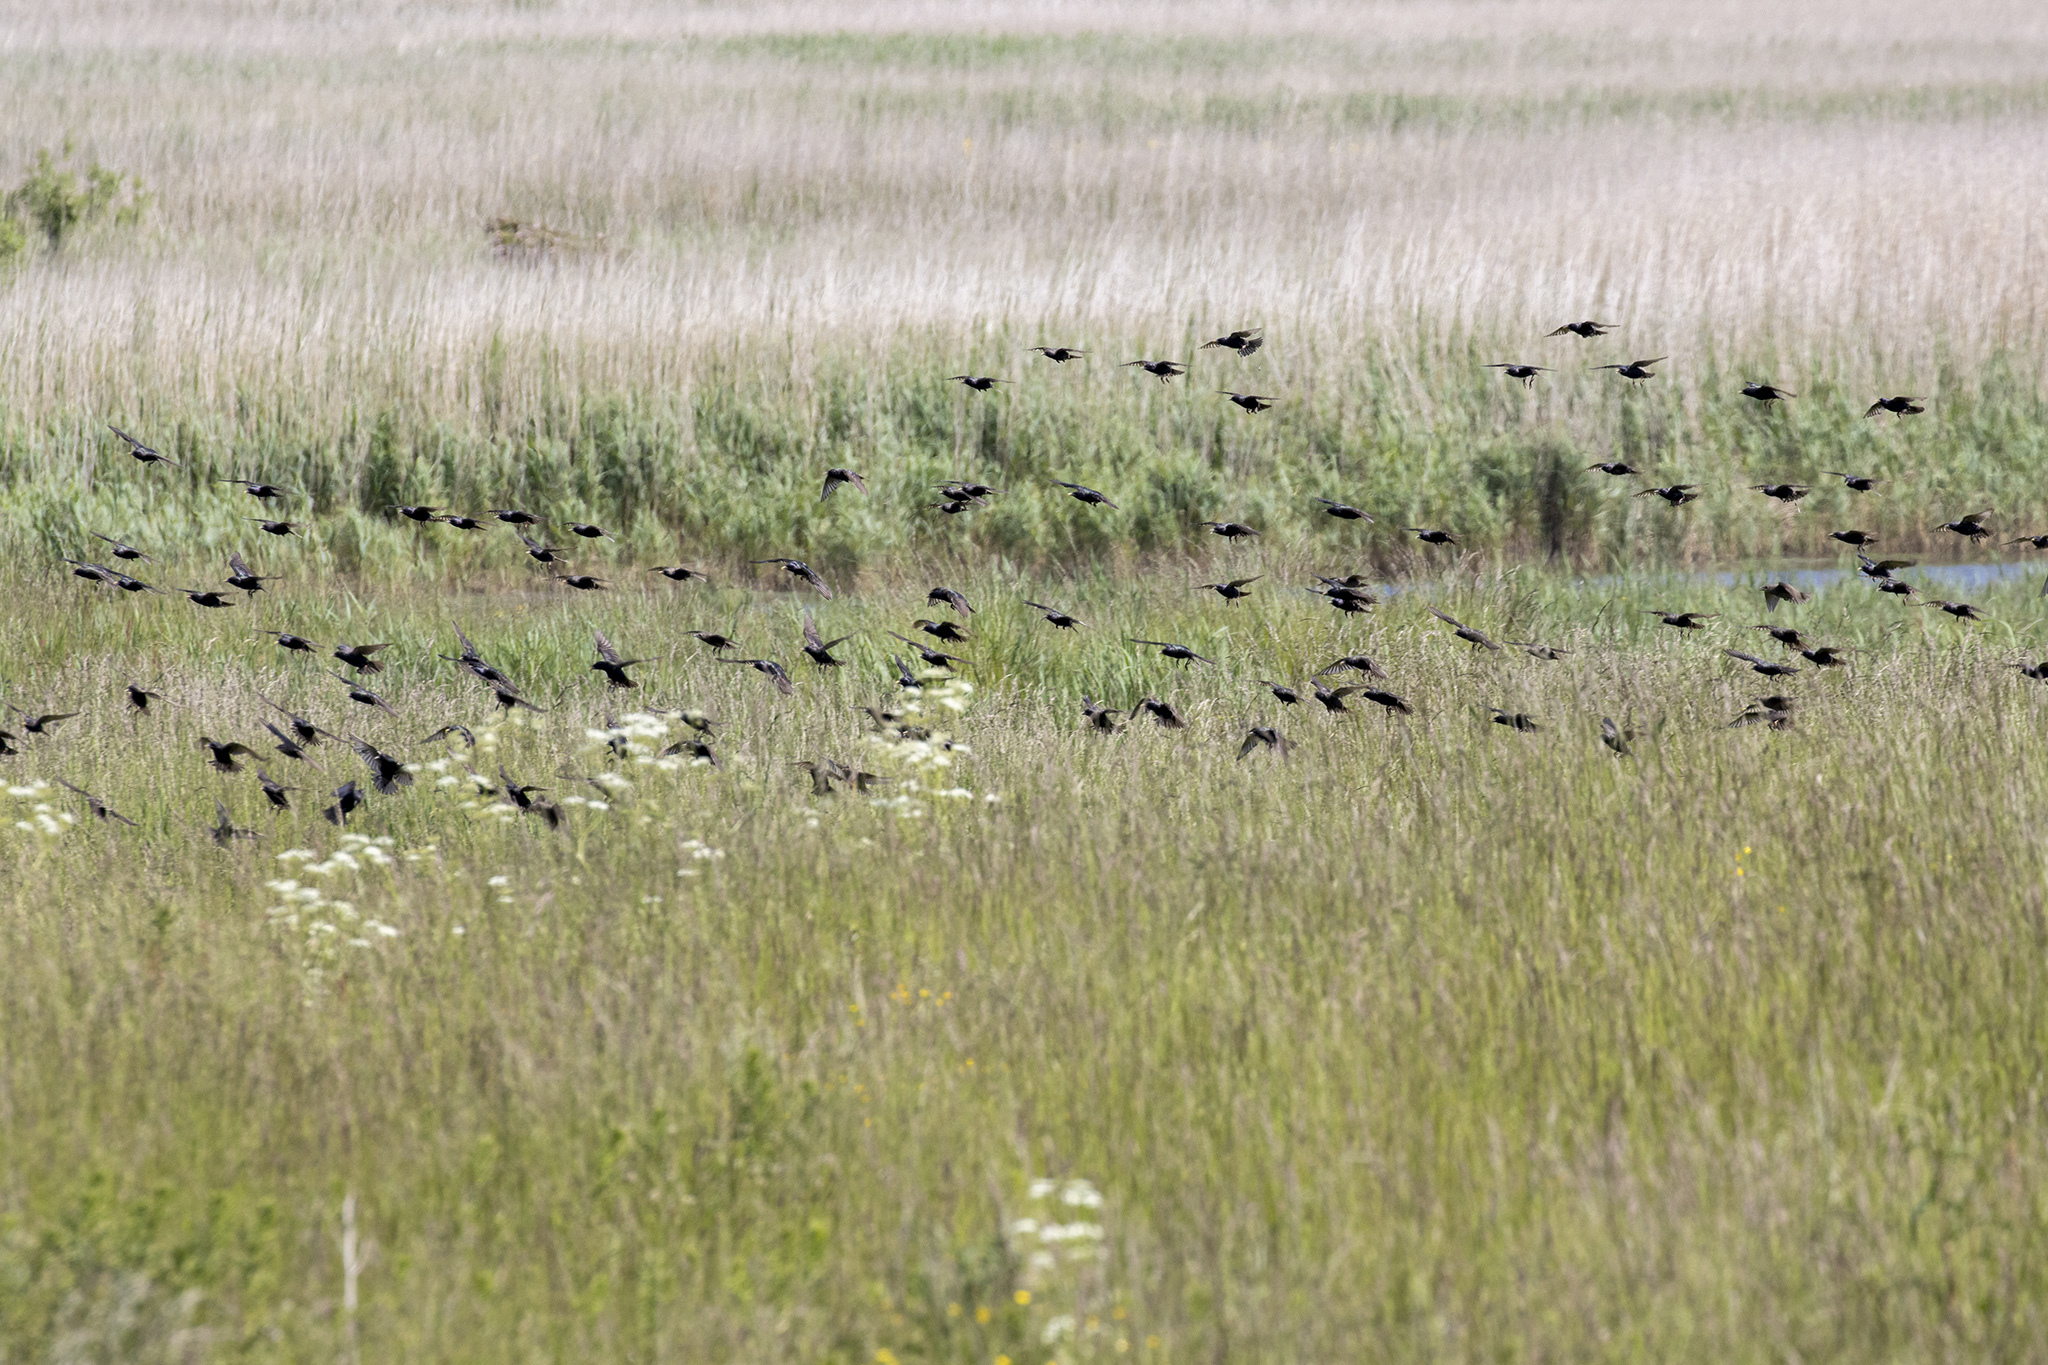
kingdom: Animalia
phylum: Chordata
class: Aves
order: Passeriformes
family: Sturnidae
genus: Sturnus
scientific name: Sturnus vulgaris
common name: Common starling
